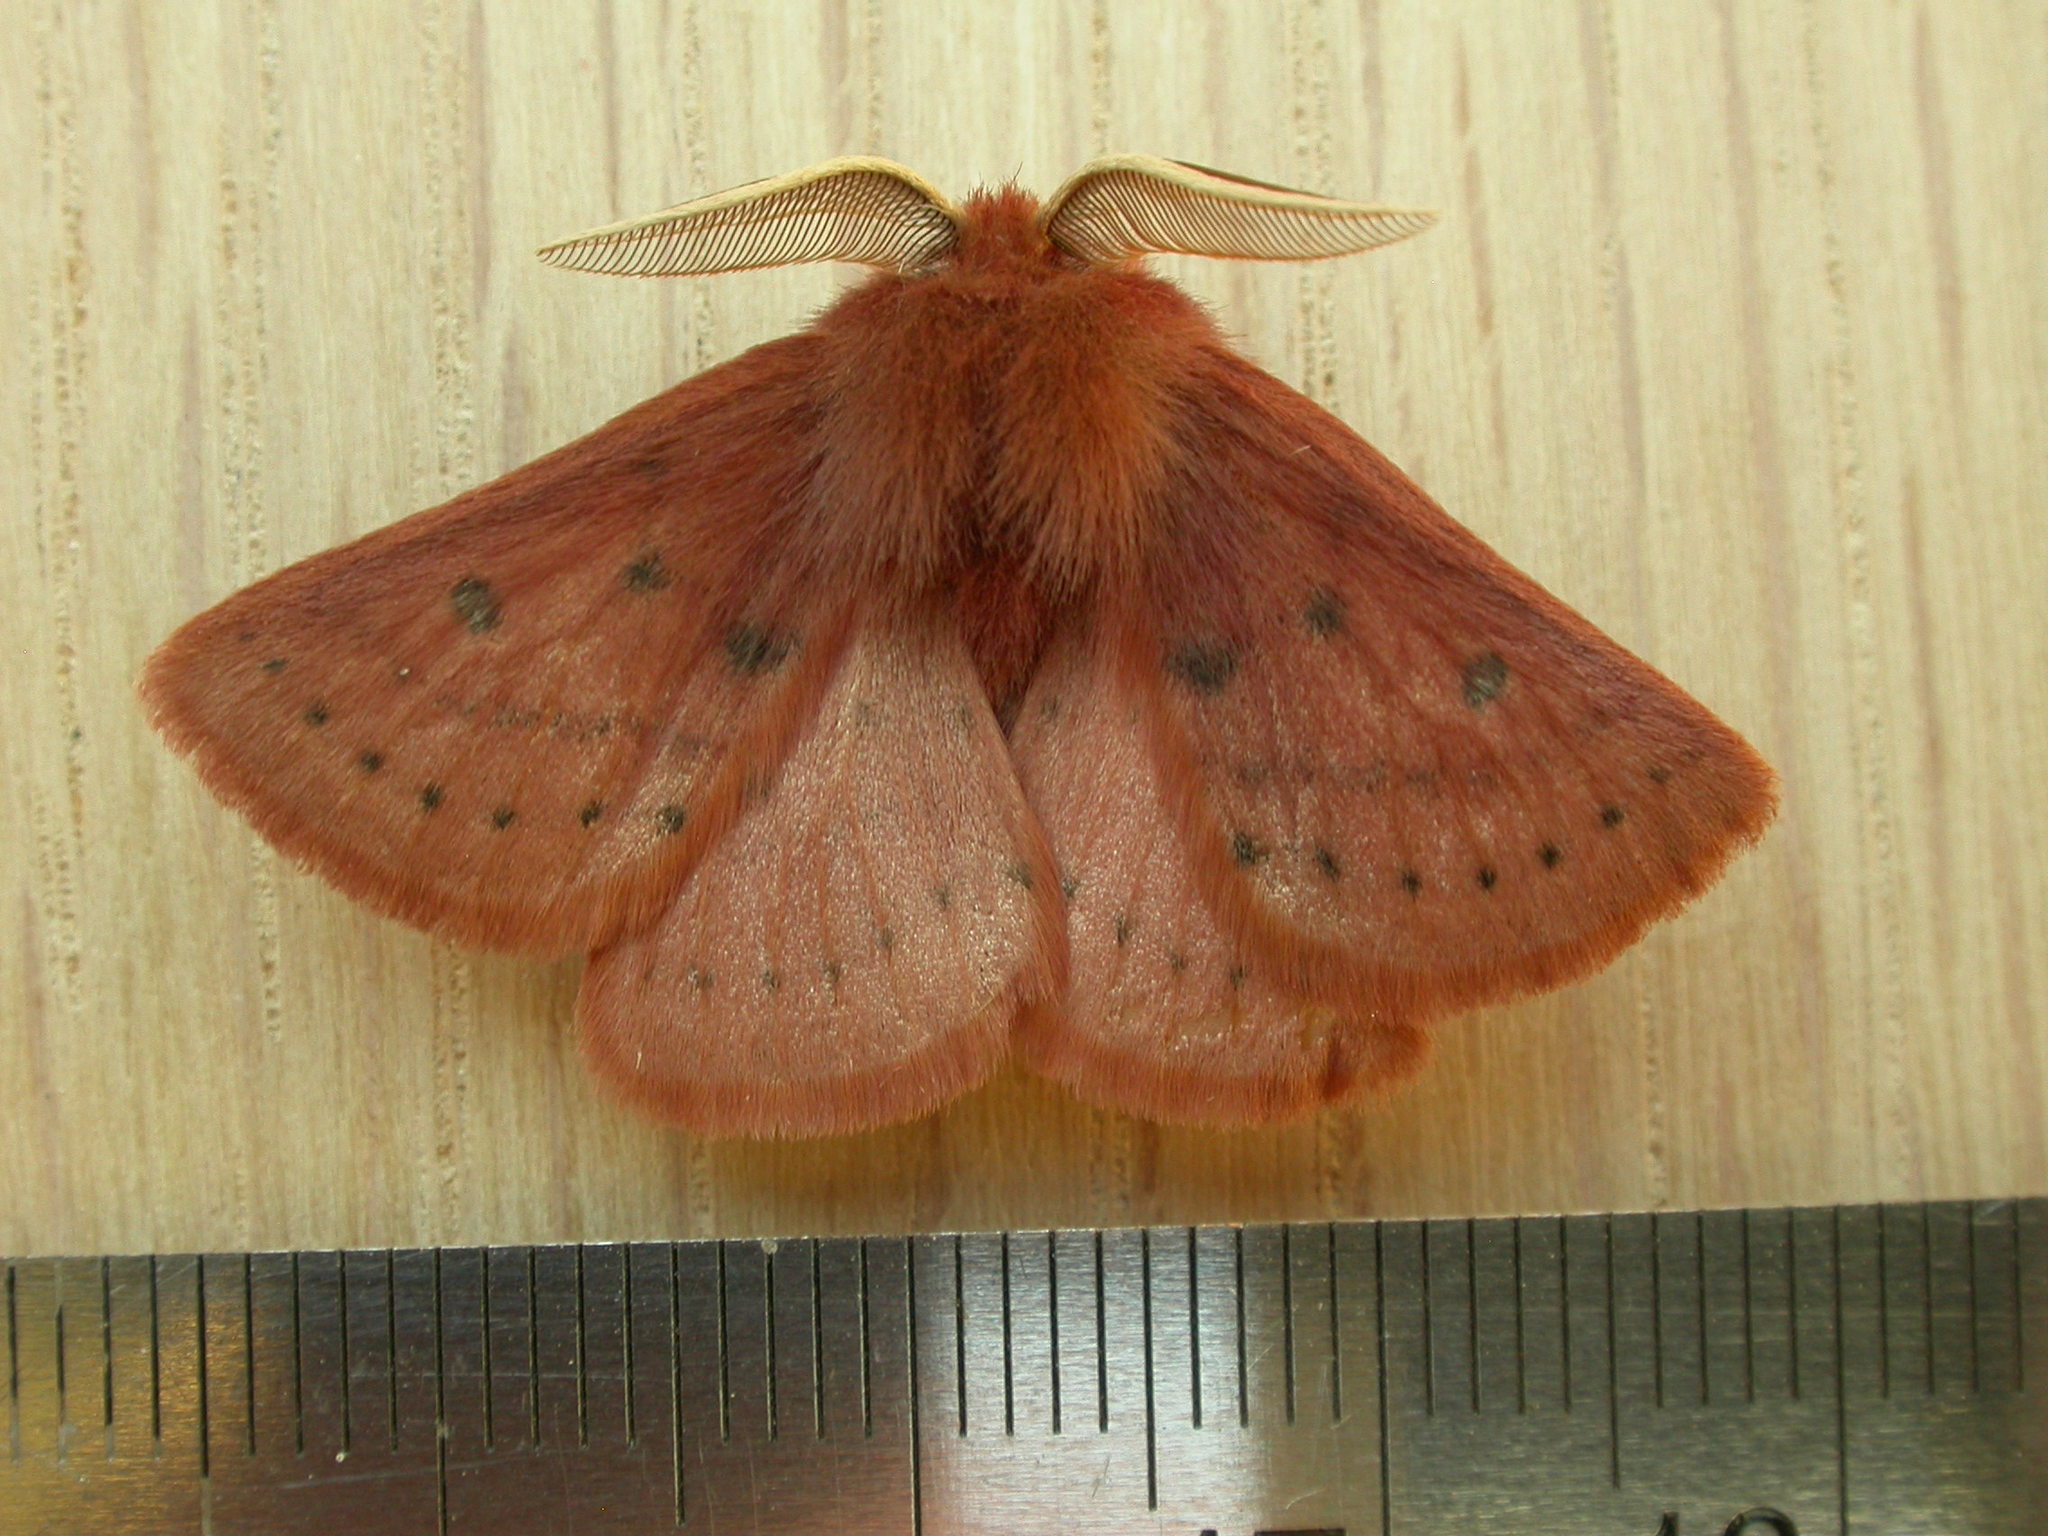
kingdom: Animalia
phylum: Arthropoda
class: Insecta
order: Lepidoptera
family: Anthelidae
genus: Anthela
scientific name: Anthela ferruginosa
